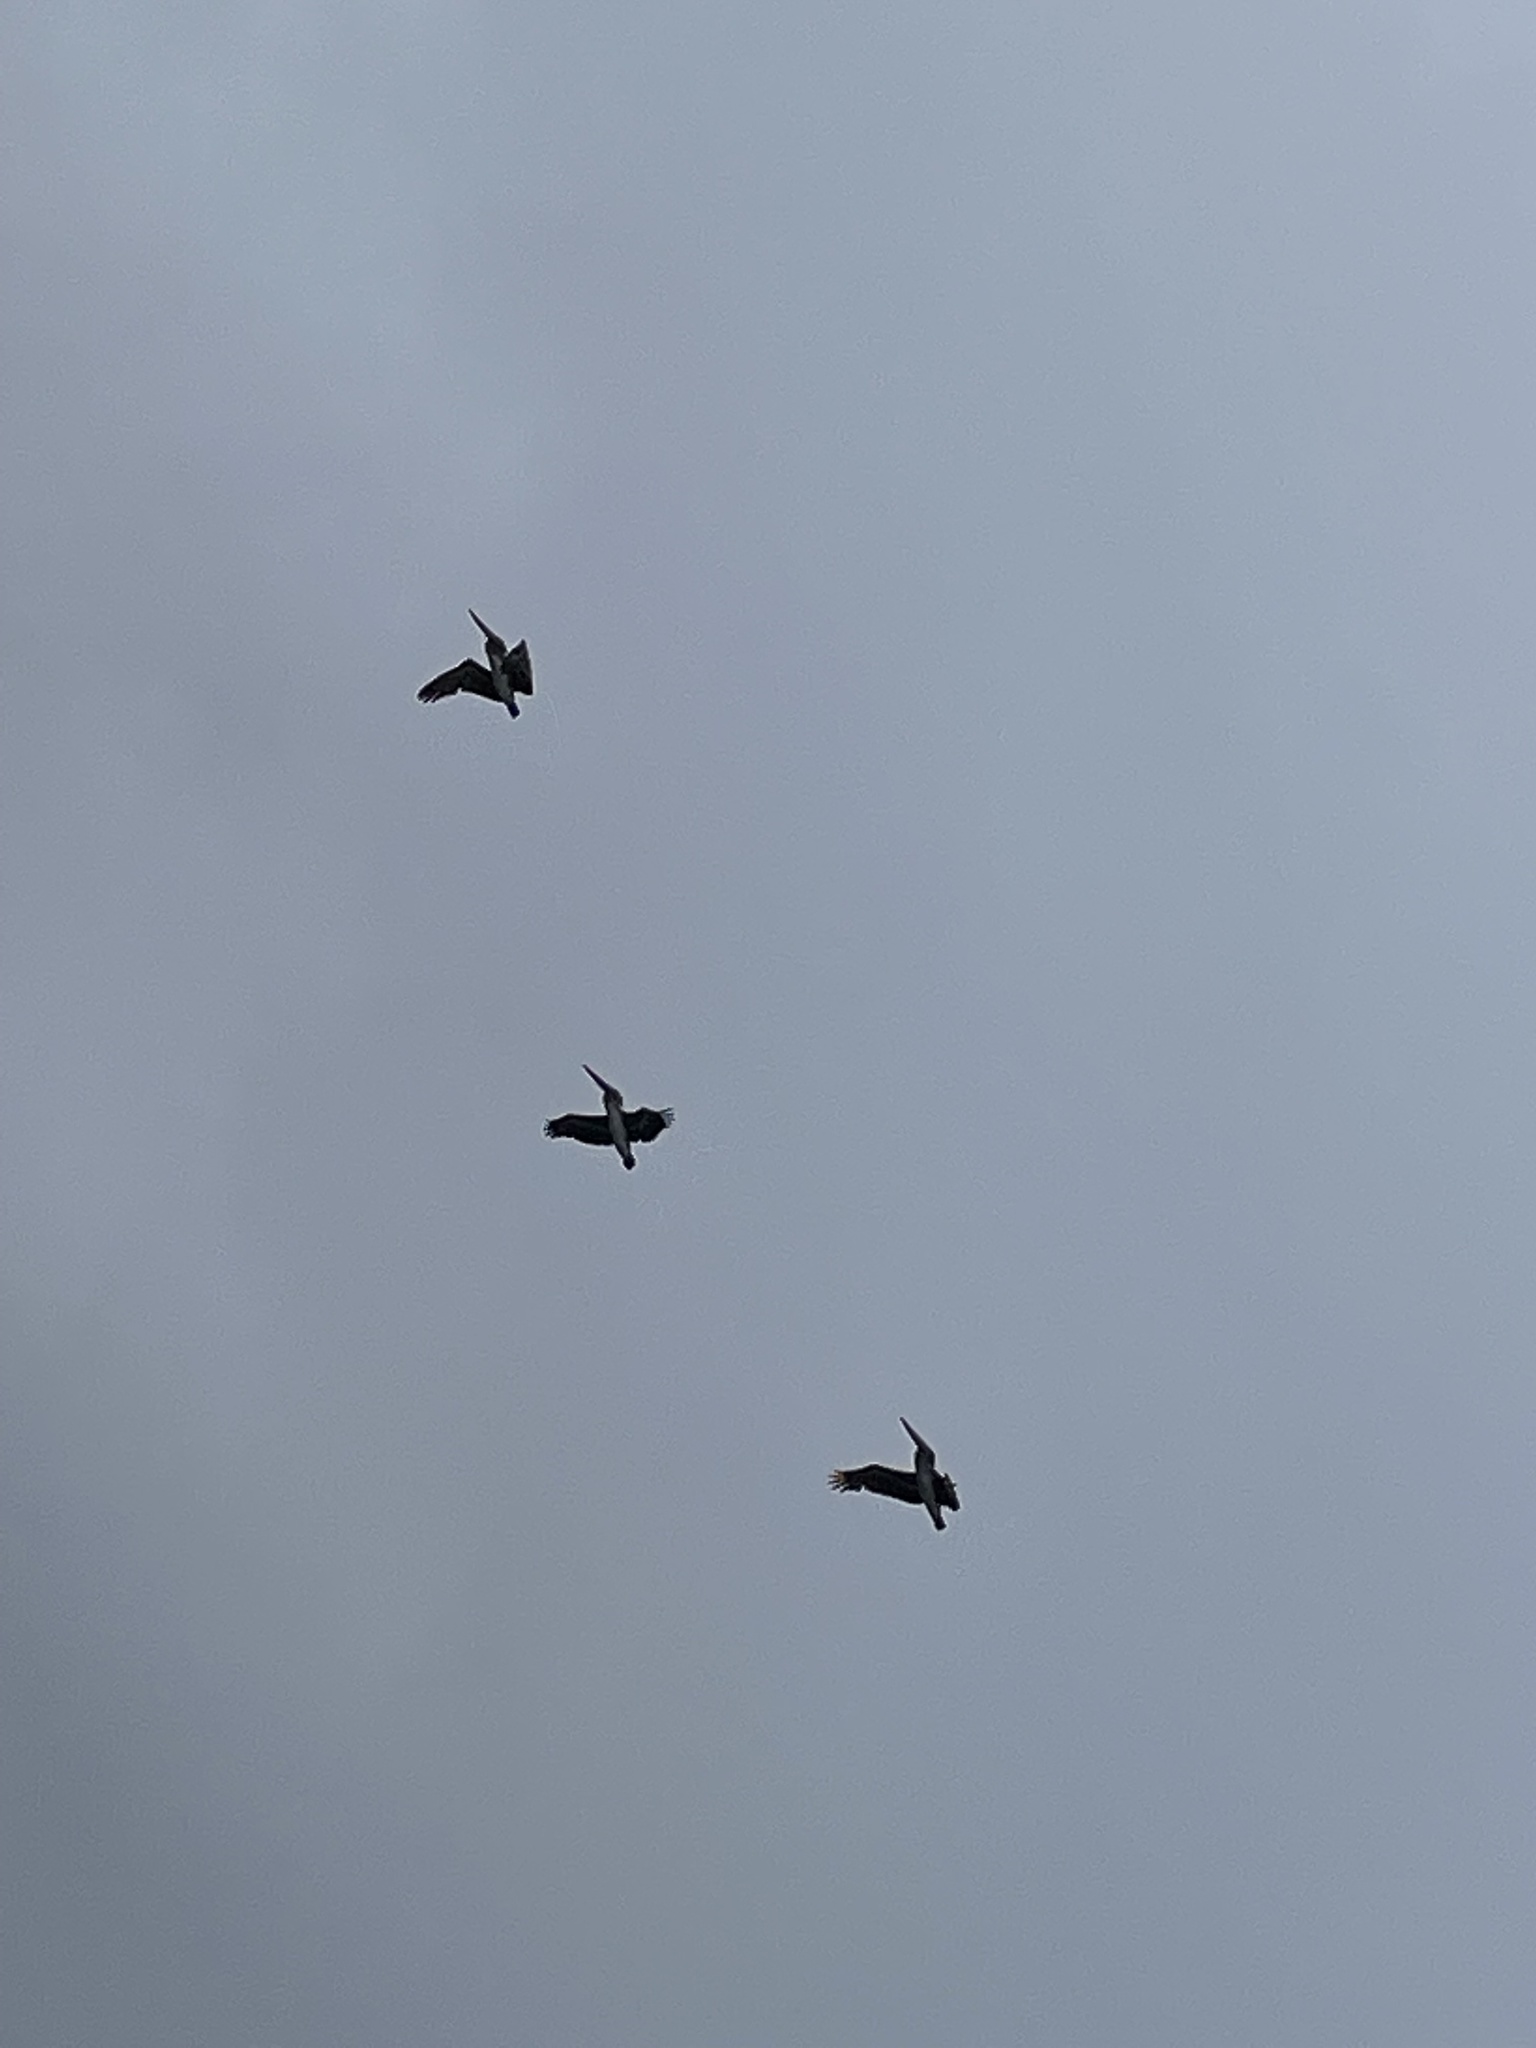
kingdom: Animalia
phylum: Chordata
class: Aves
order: Pelecaniformes
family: Pelecanidae
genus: Pelecanus
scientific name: Pelecanus occidentalis
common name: Brown pelican
